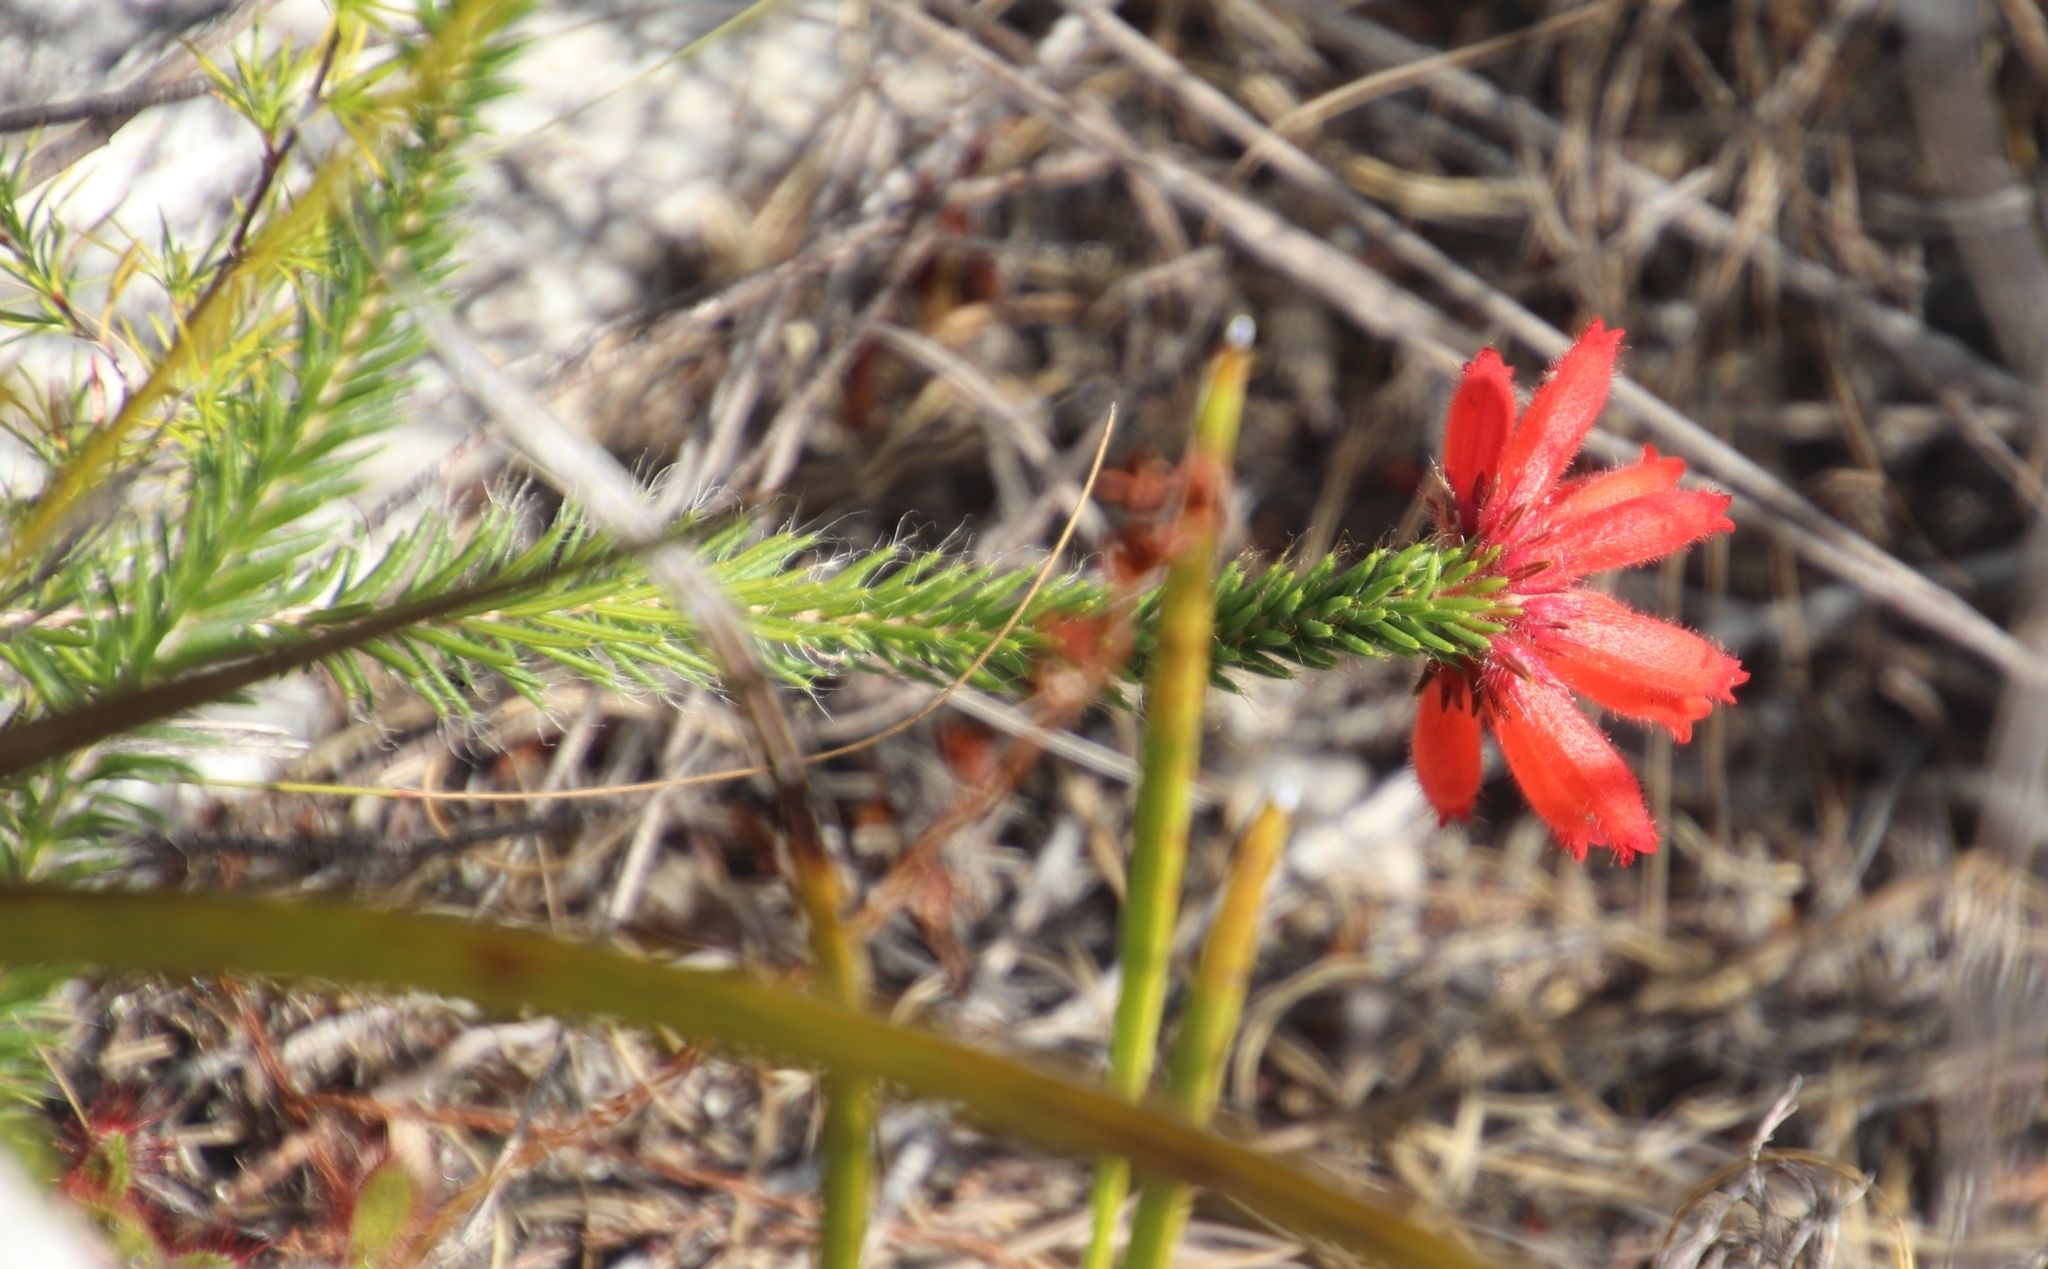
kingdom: Plantae
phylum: Tracheophyta
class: Magnoliopsida
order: Ericales
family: Ericaceae
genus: Erica
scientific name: Erica cerinthoides
